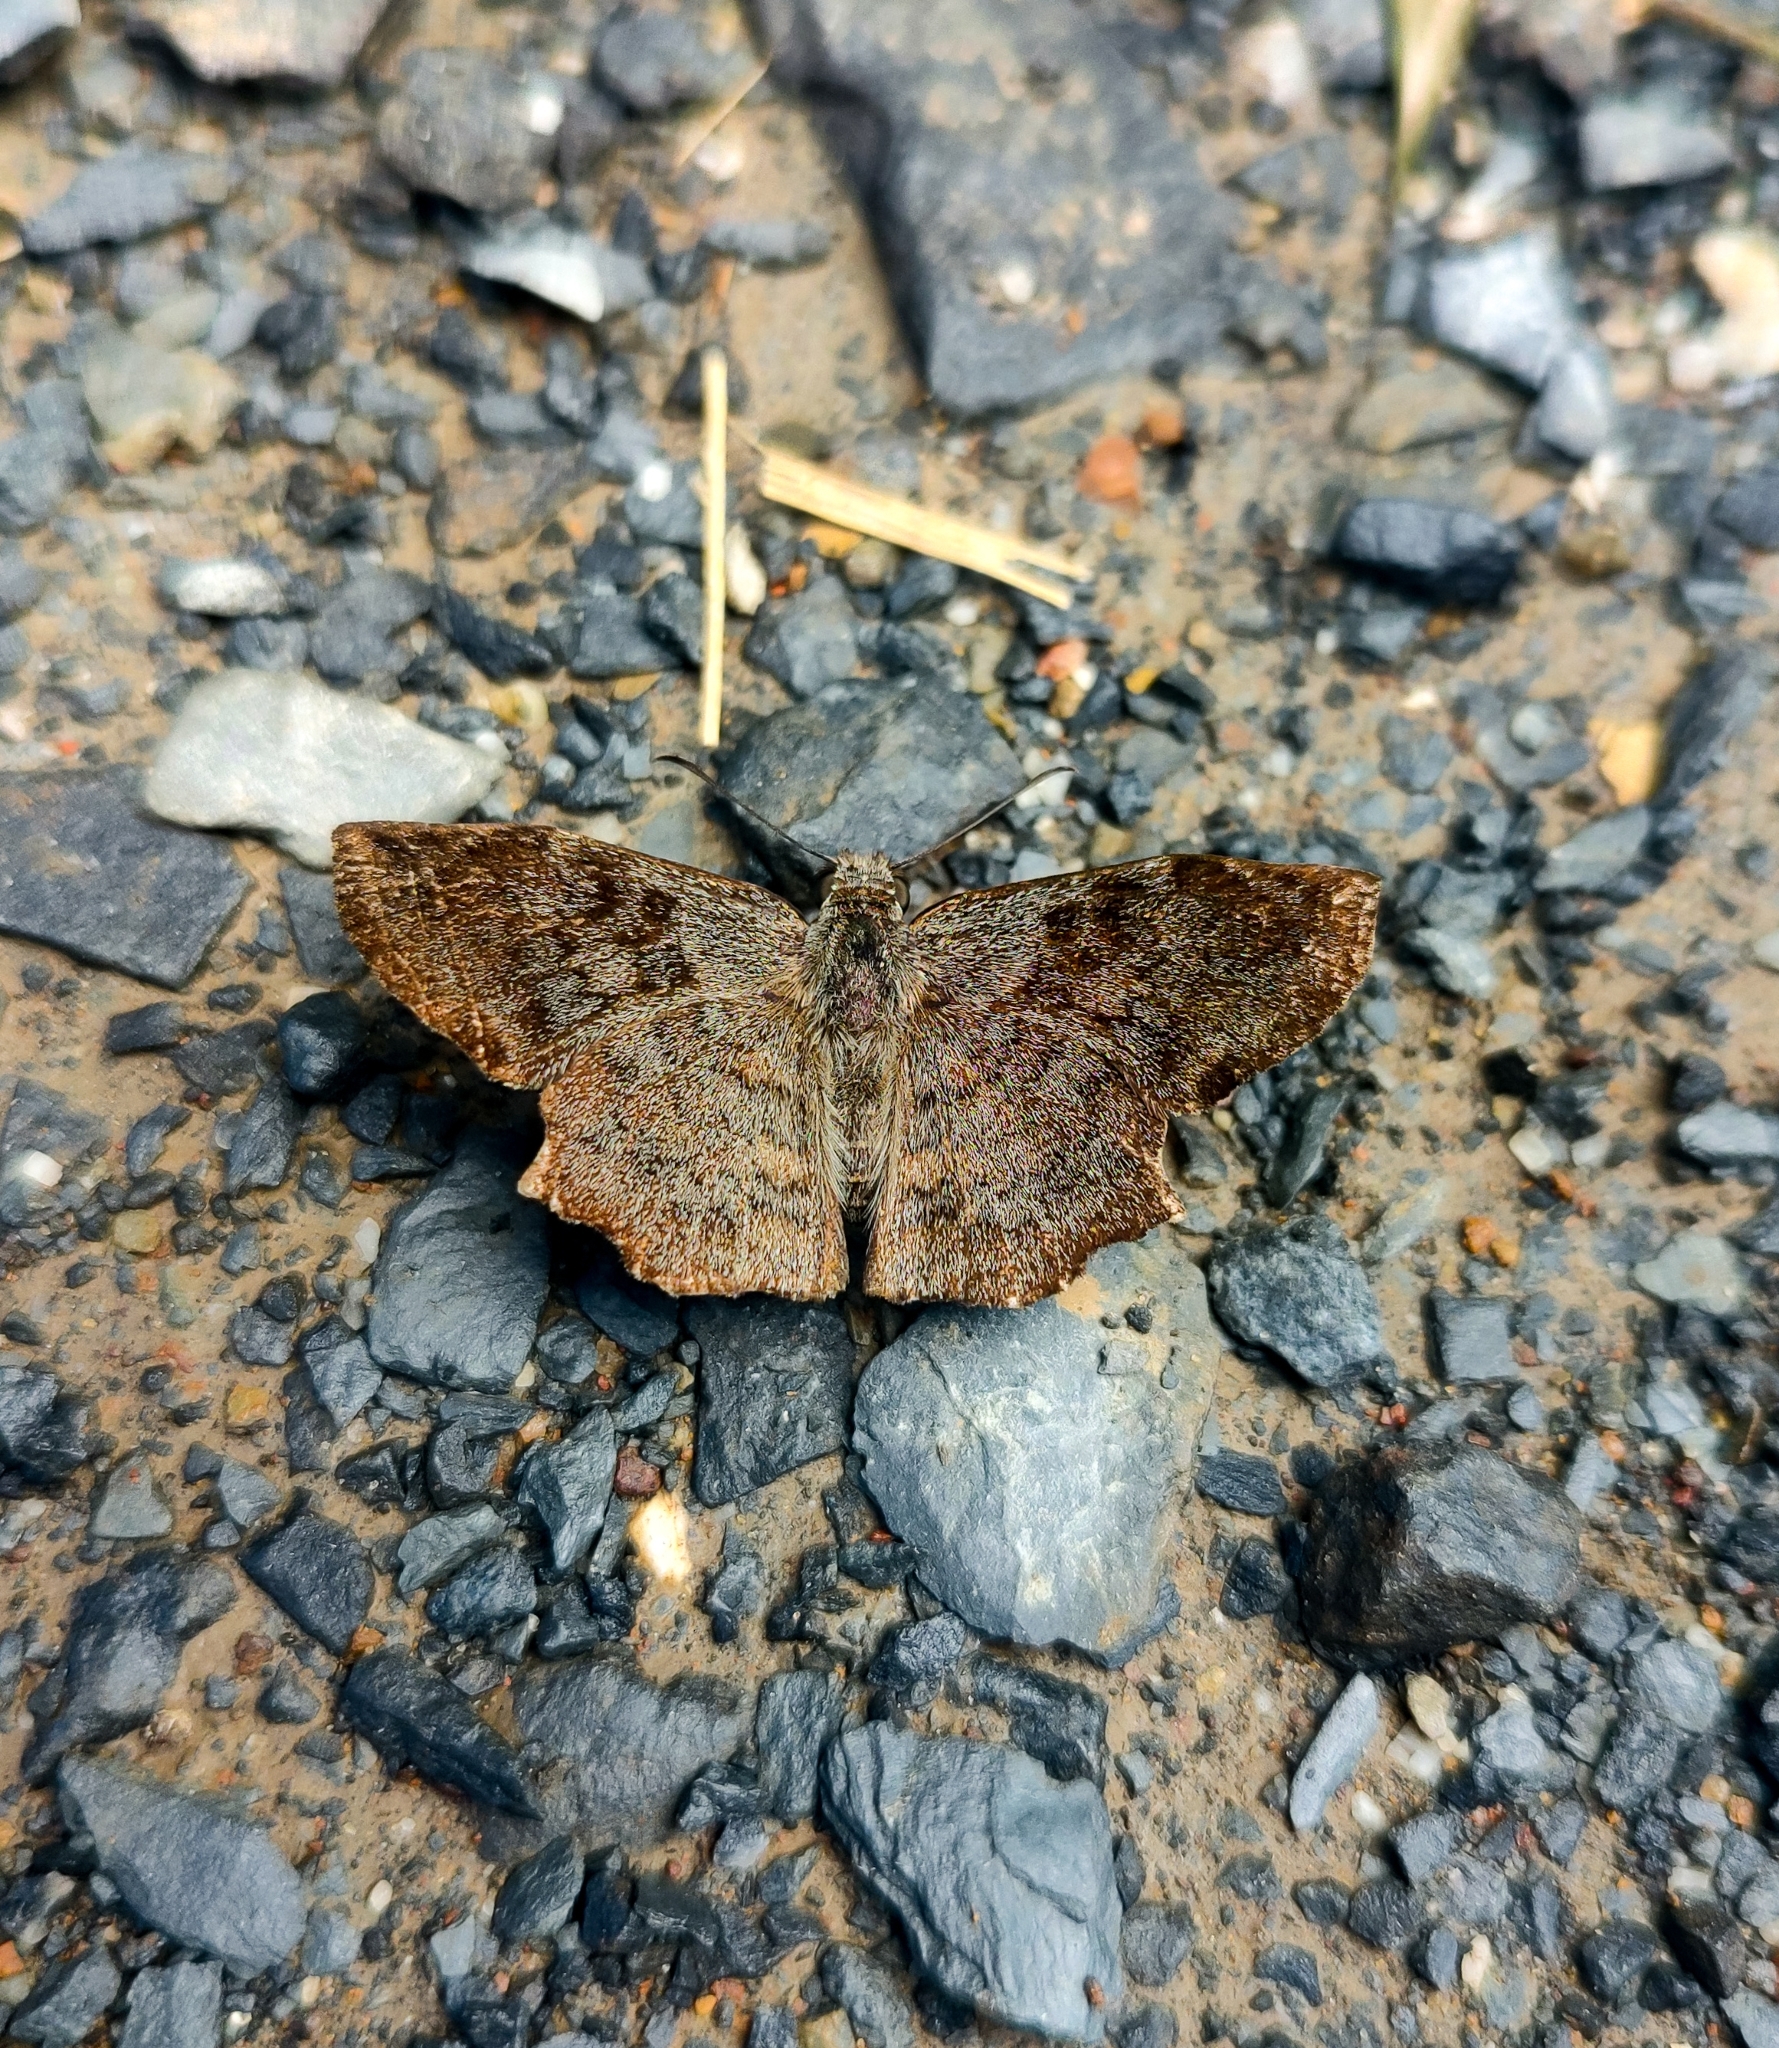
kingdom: Animalia
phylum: Arthropoda
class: Insecta
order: Lepidoptera
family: Hesperiidae
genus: Antigonus
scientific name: Antigonus erosus
